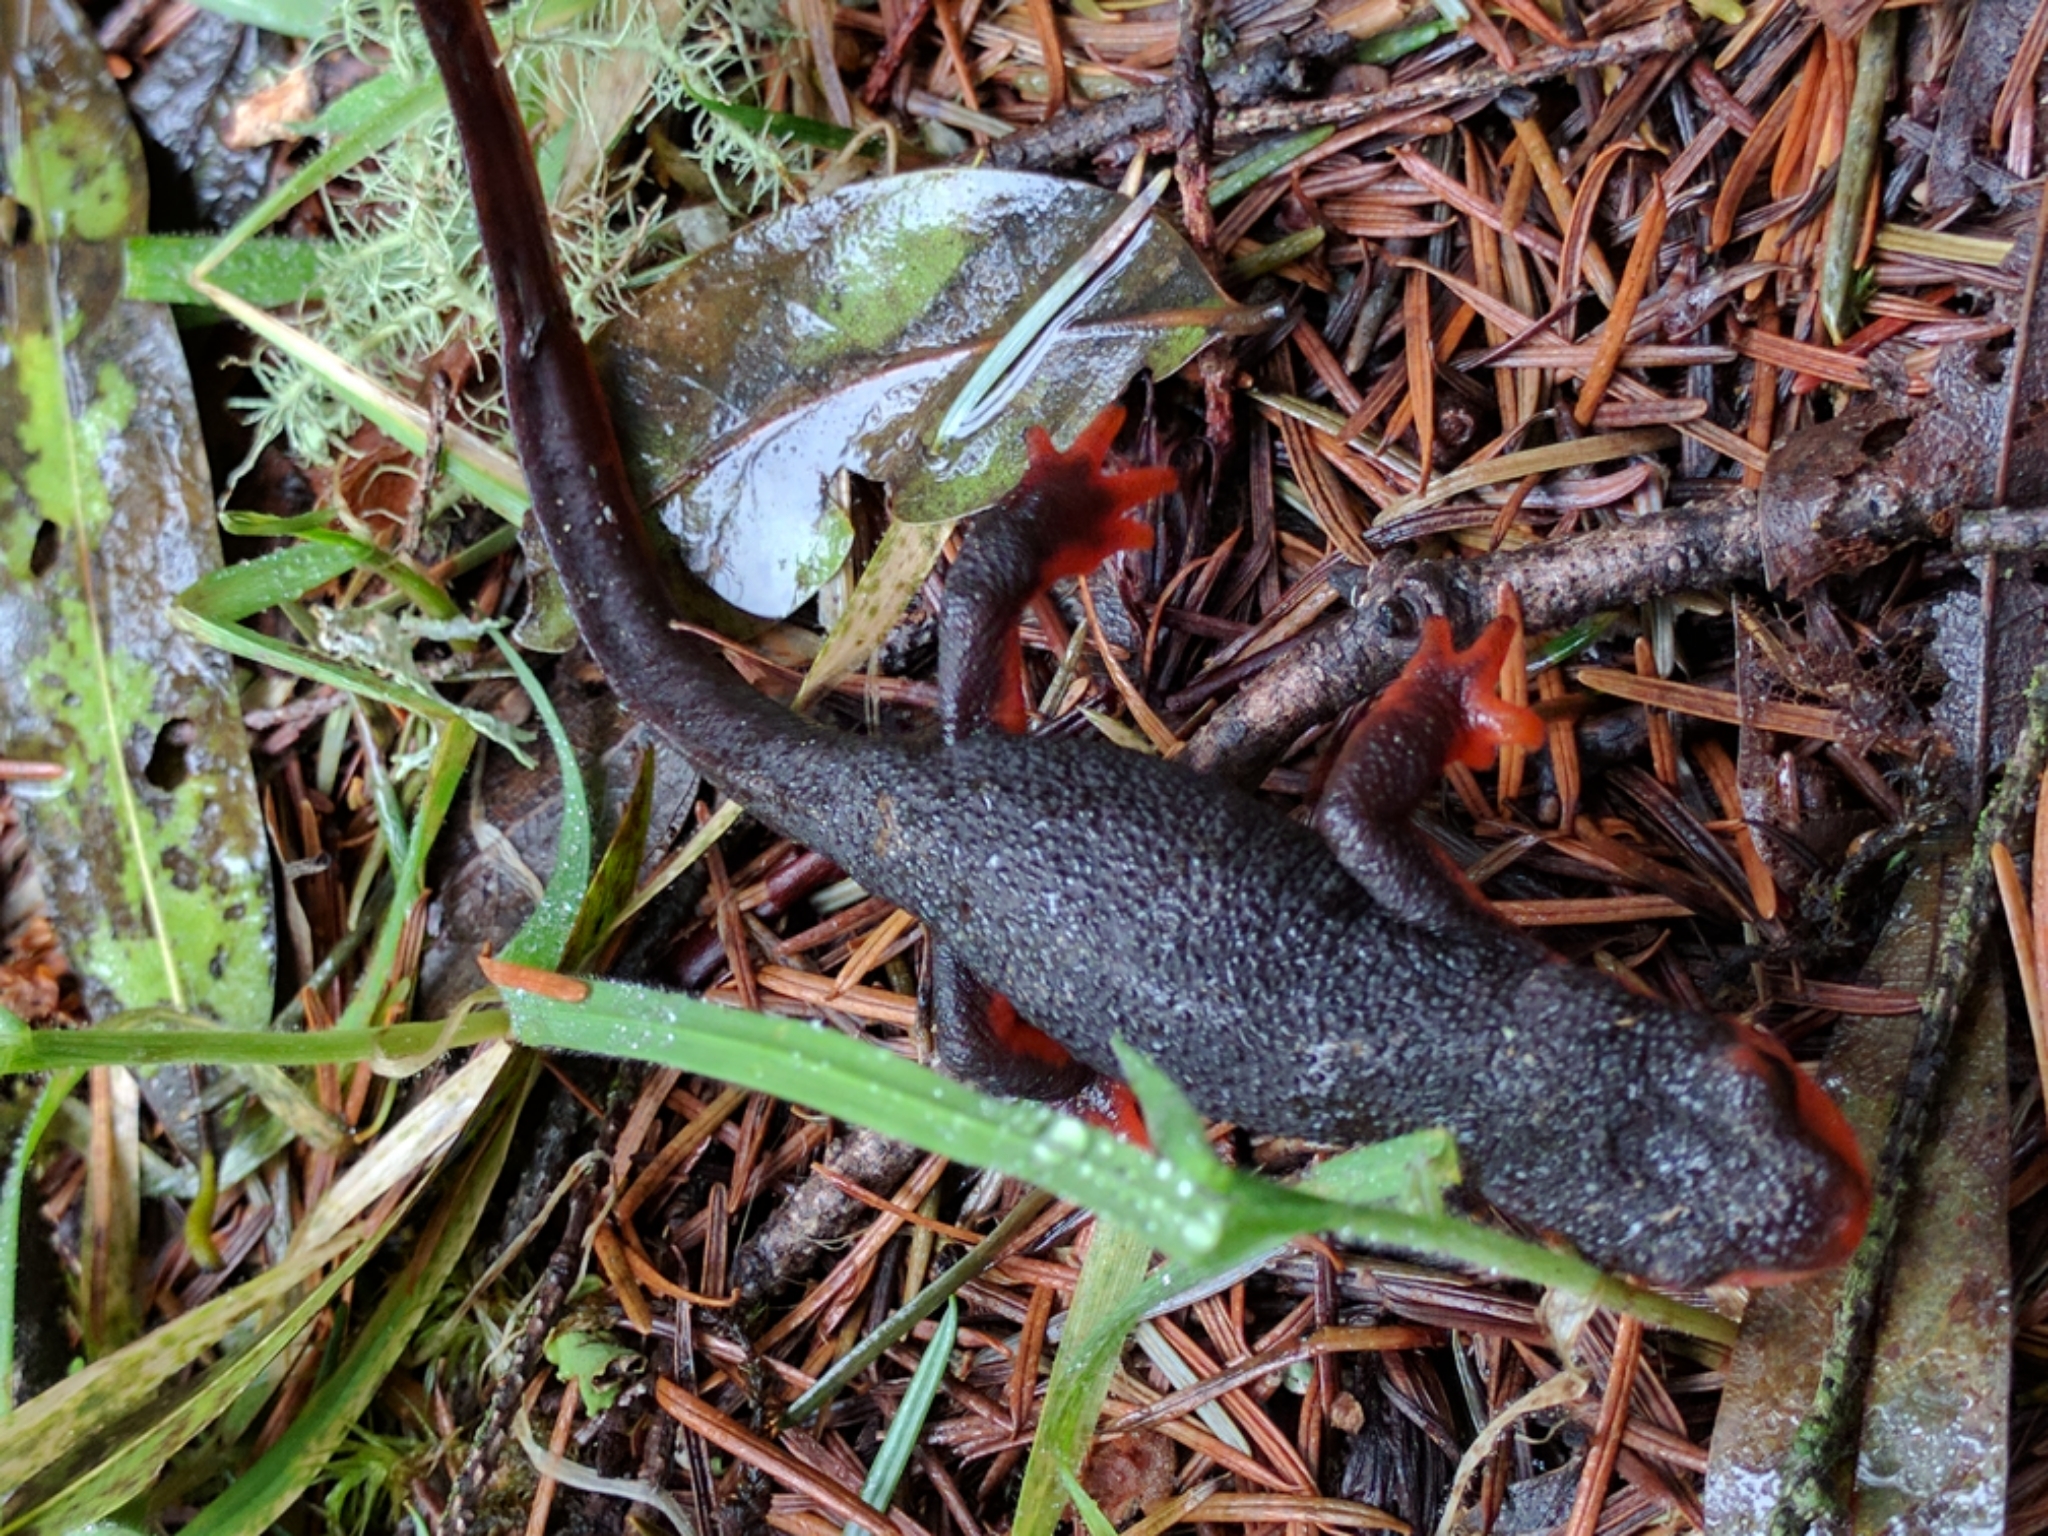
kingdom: Animalia
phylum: Chordata
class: Amphibia
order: Caudata
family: Salamandridae
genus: Taricha
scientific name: Taricha rivularis
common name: Red-bellied newt
